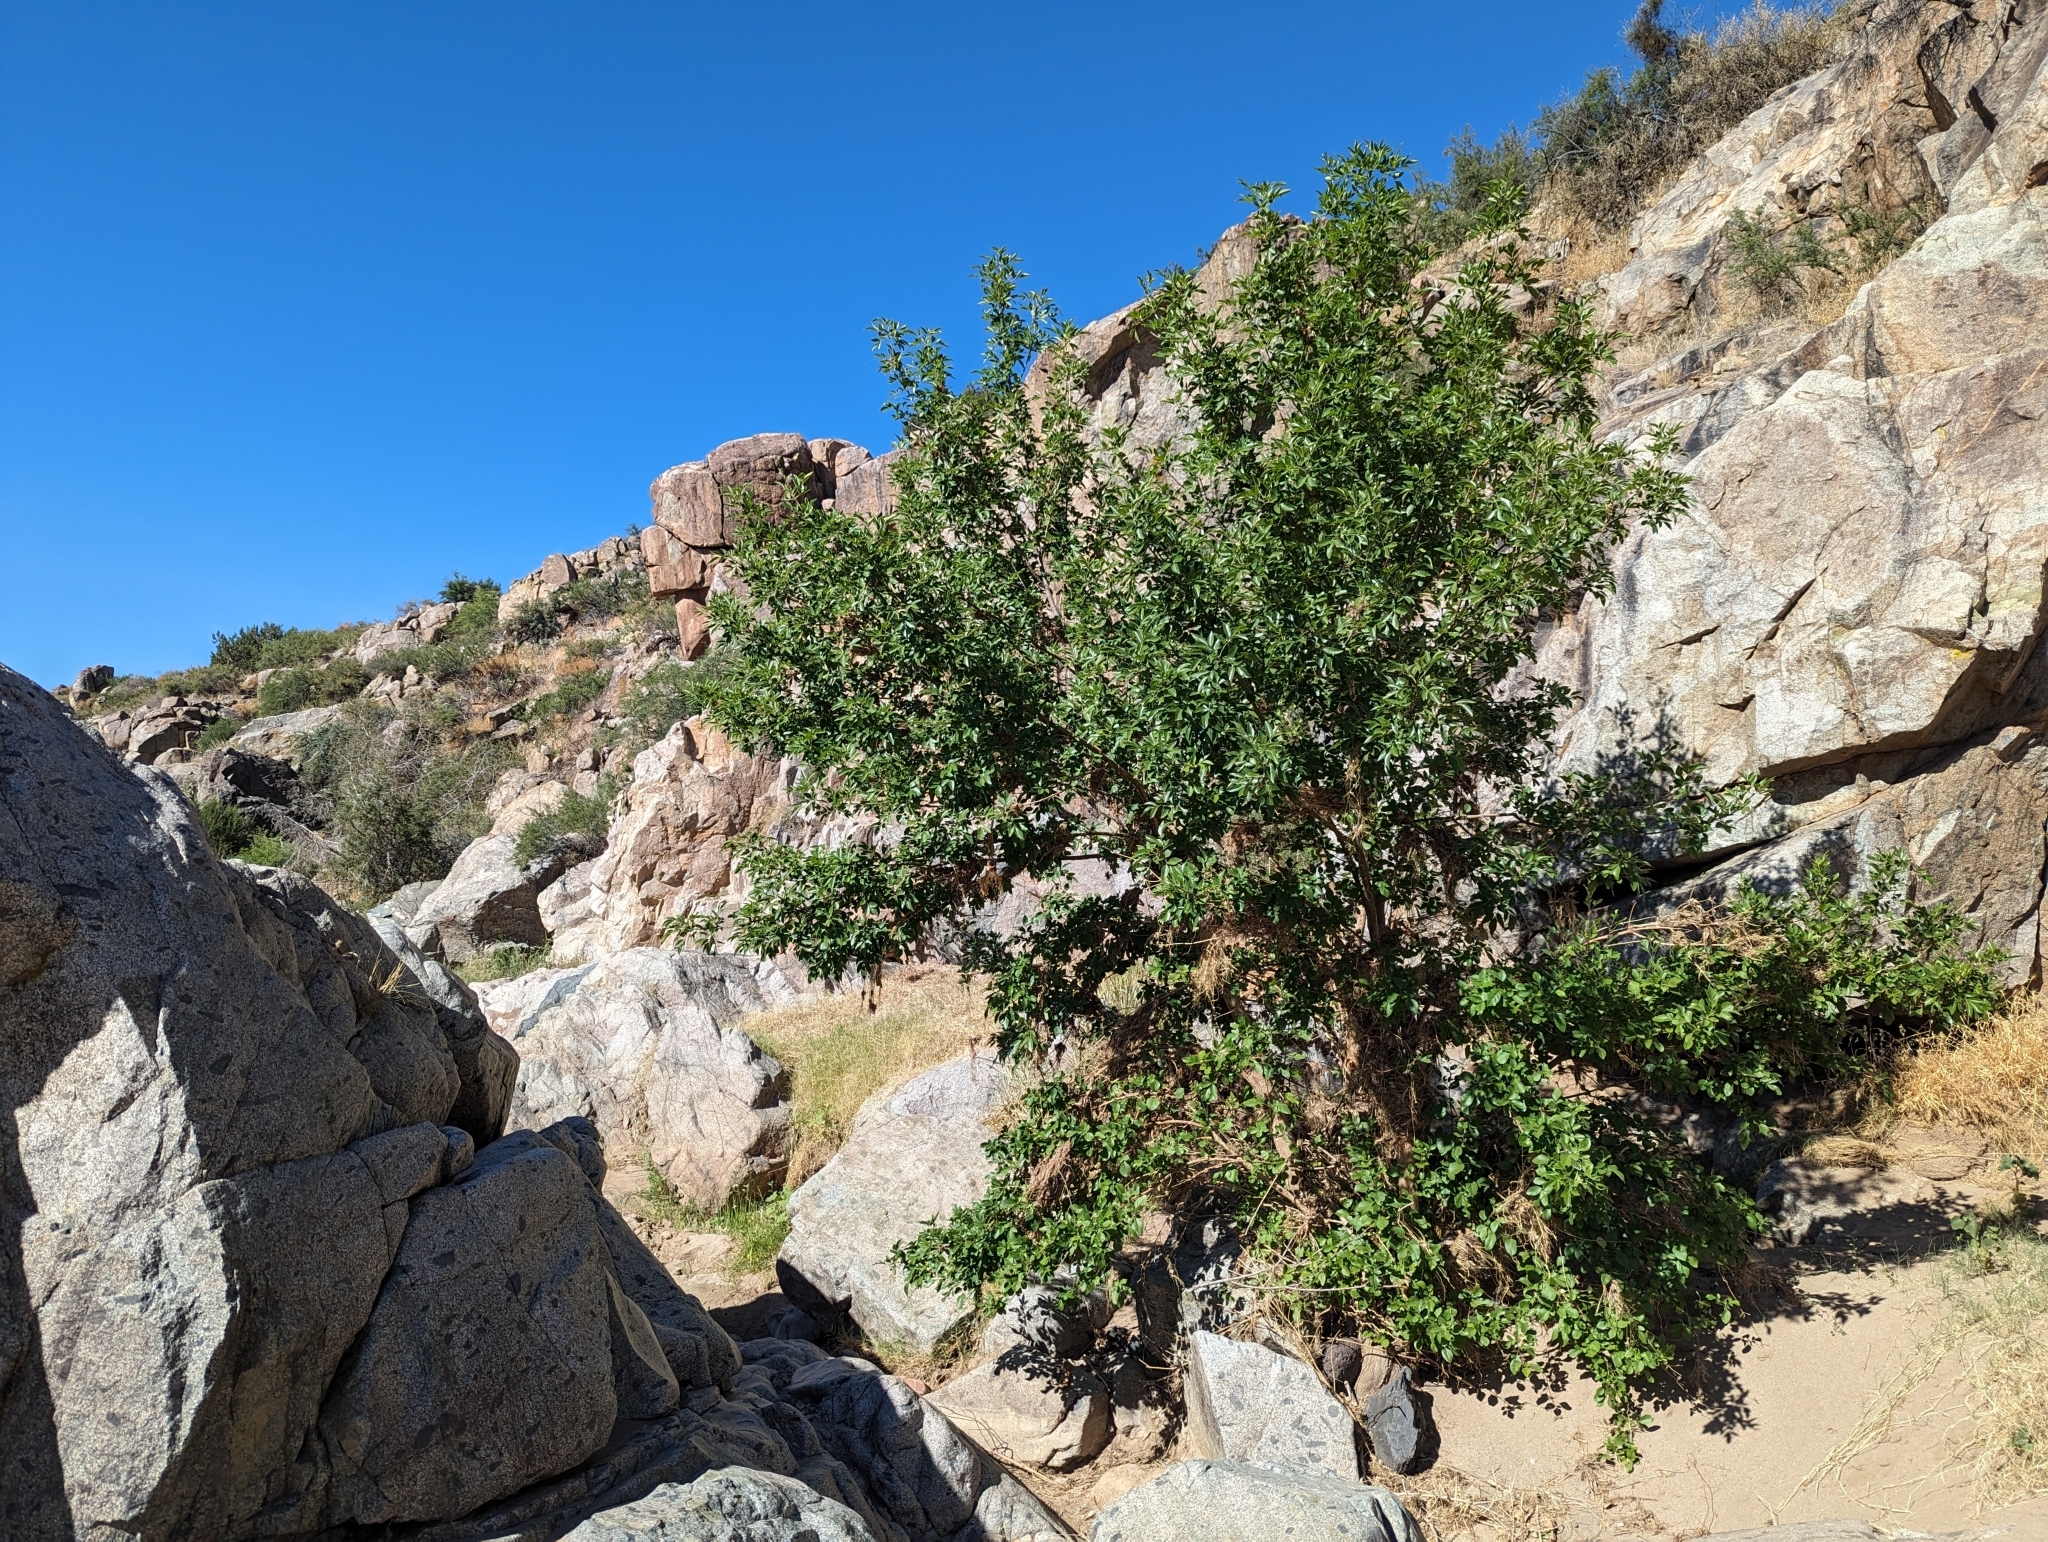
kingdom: Plantae
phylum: Tracheophyta
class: Magnoliopsida
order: Lamiales
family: Oleaceae
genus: Fraxinus
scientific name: Fraxinus velutina
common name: Arizon ash
